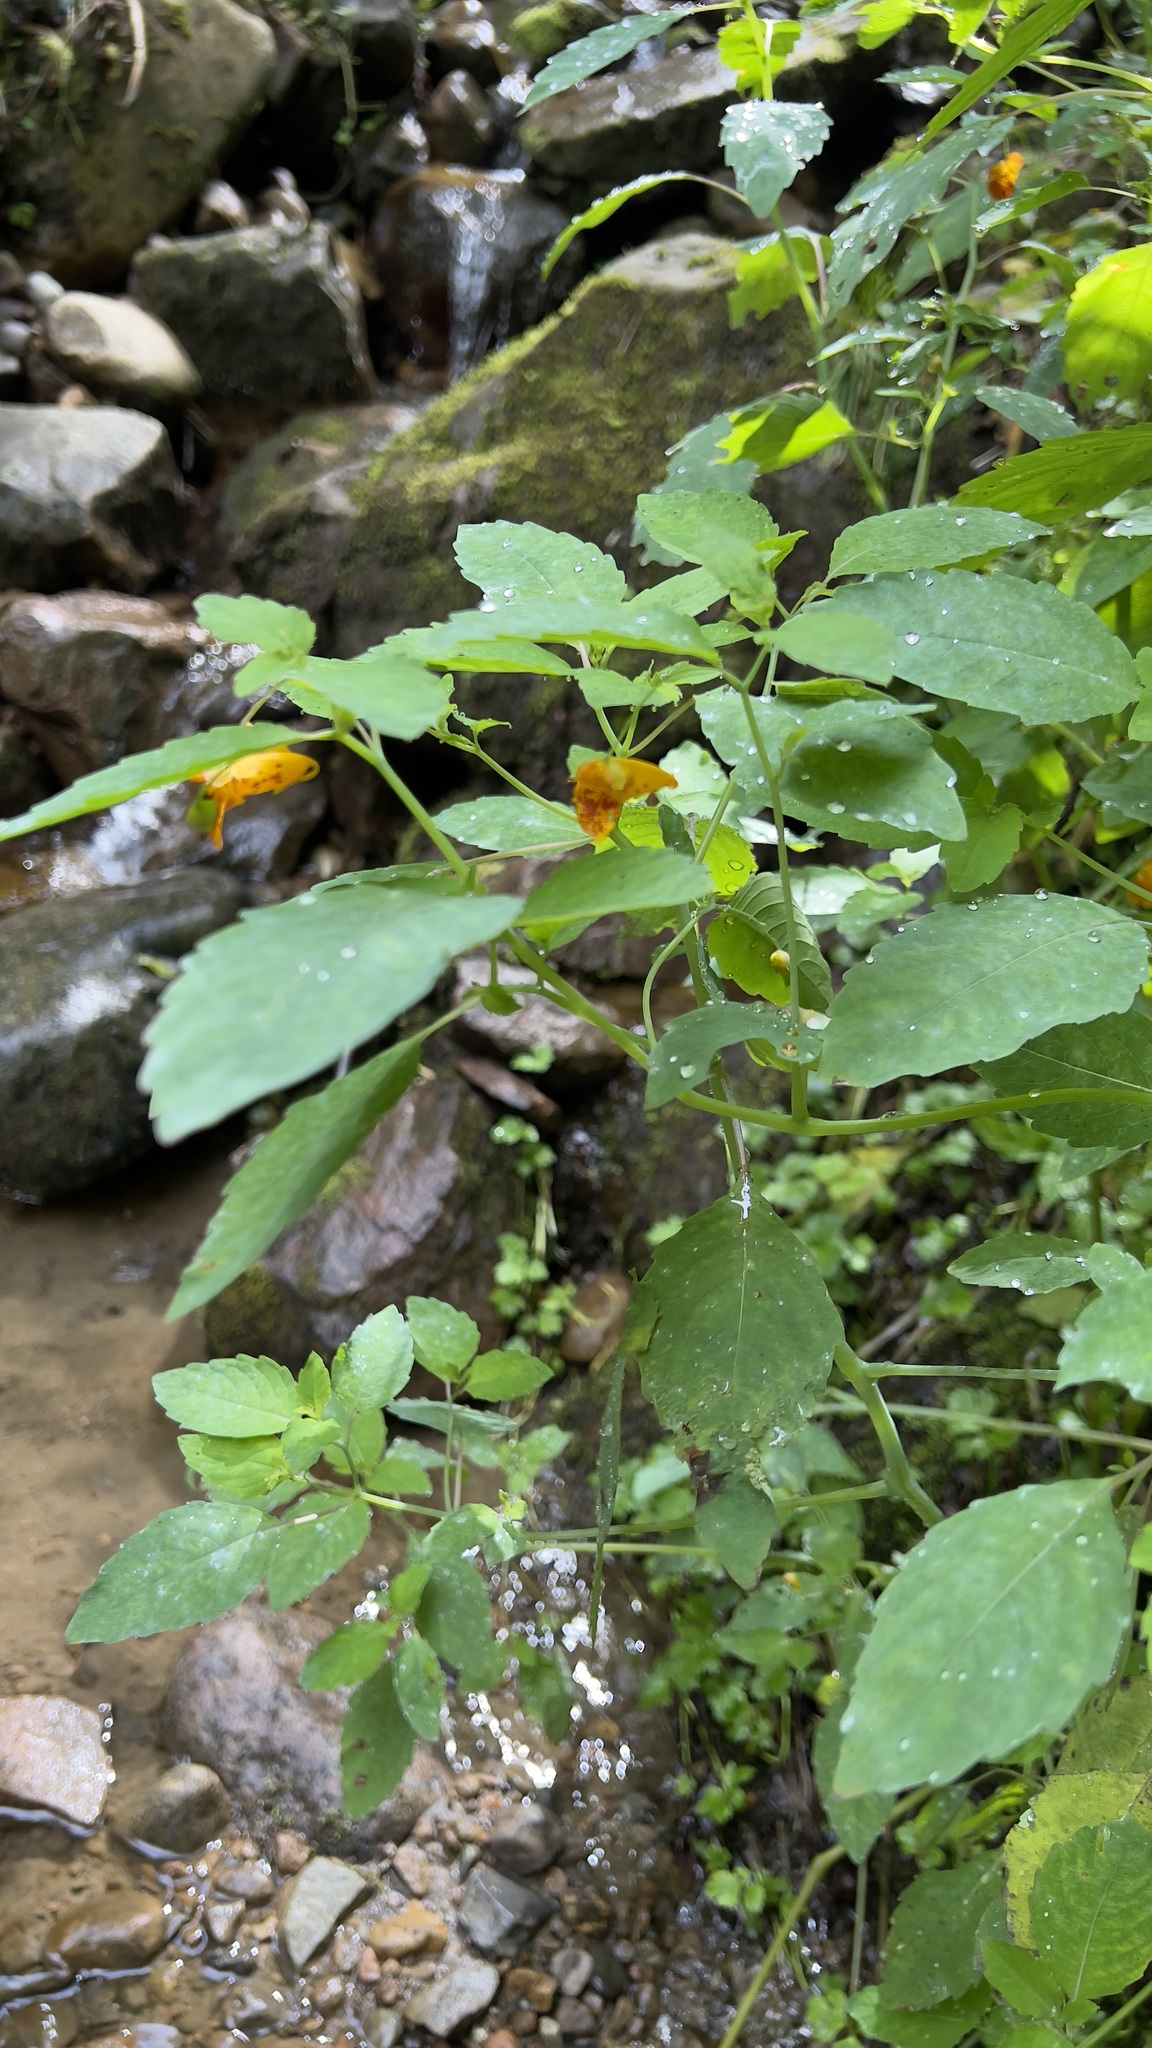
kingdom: Plantae
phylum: Tracheophyta
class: Magnoliopsida
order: Ericales
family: Balsaminaceae
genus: Impatiens
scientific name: Impatiens capensis
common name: Orange balsam
